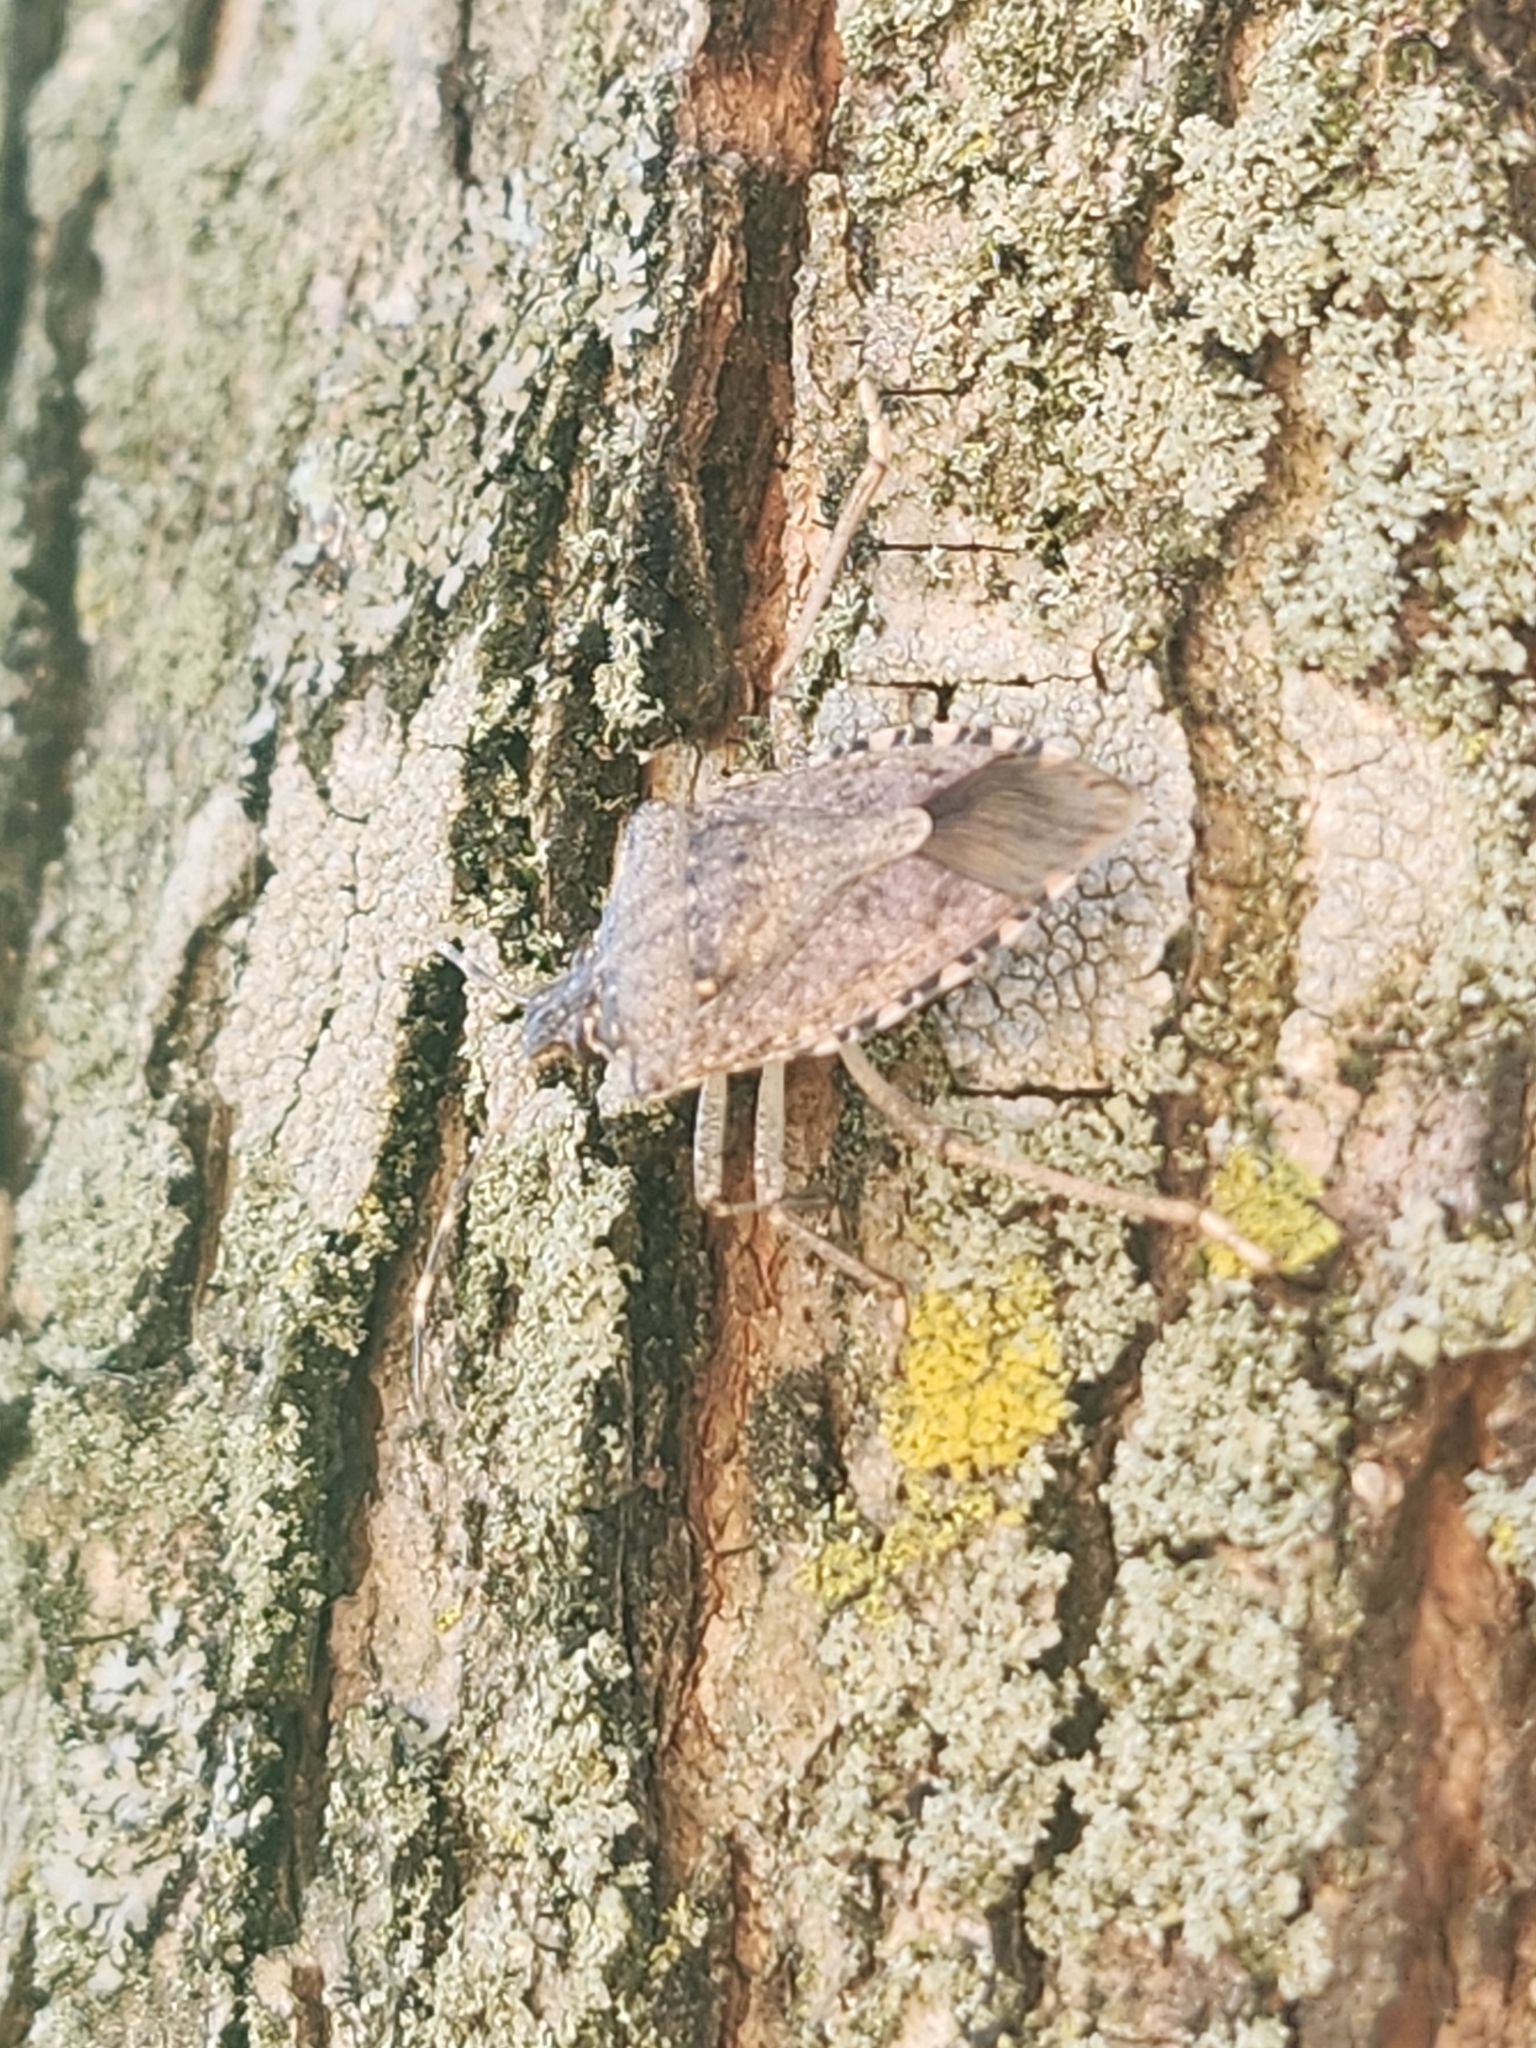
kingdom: Animalia
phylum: Arthropoda
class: Insecta
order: Hemiptera
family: Pentatomidae
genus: Halyomorpha
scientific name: Halyomorpha halys
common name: Brown marmorated stink bug
